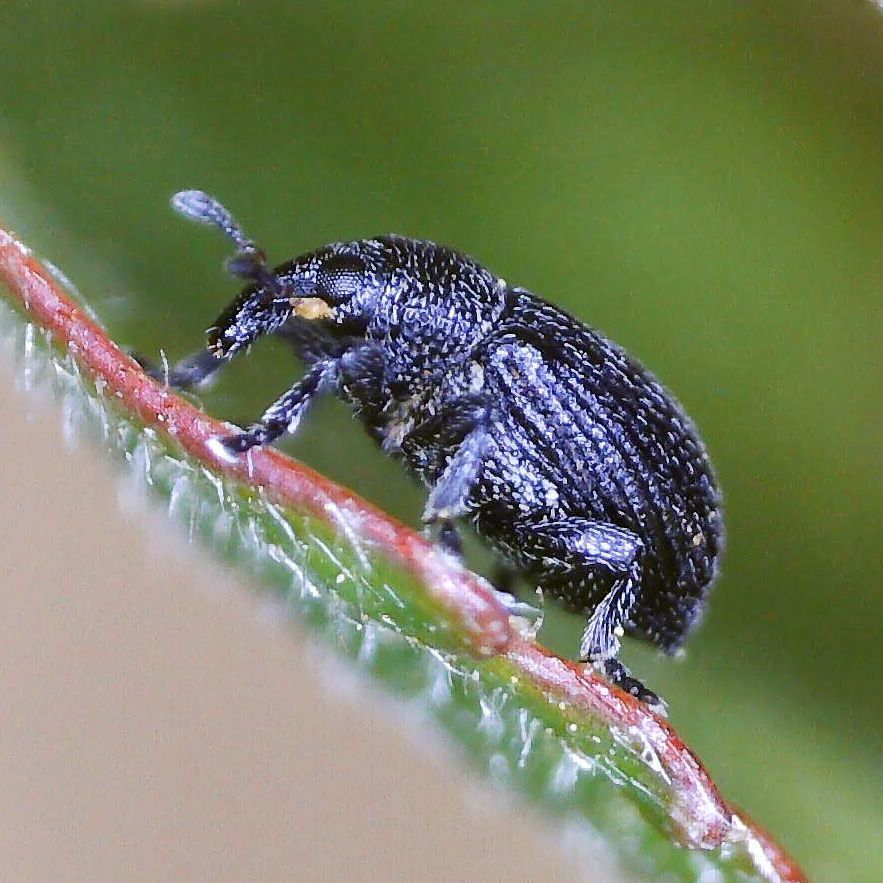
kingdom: Animalia
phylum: Arthropoda
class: Insecta
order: Coleoptera
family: Curculionidae
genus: Anoplus
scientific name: Anoplus plantaris
